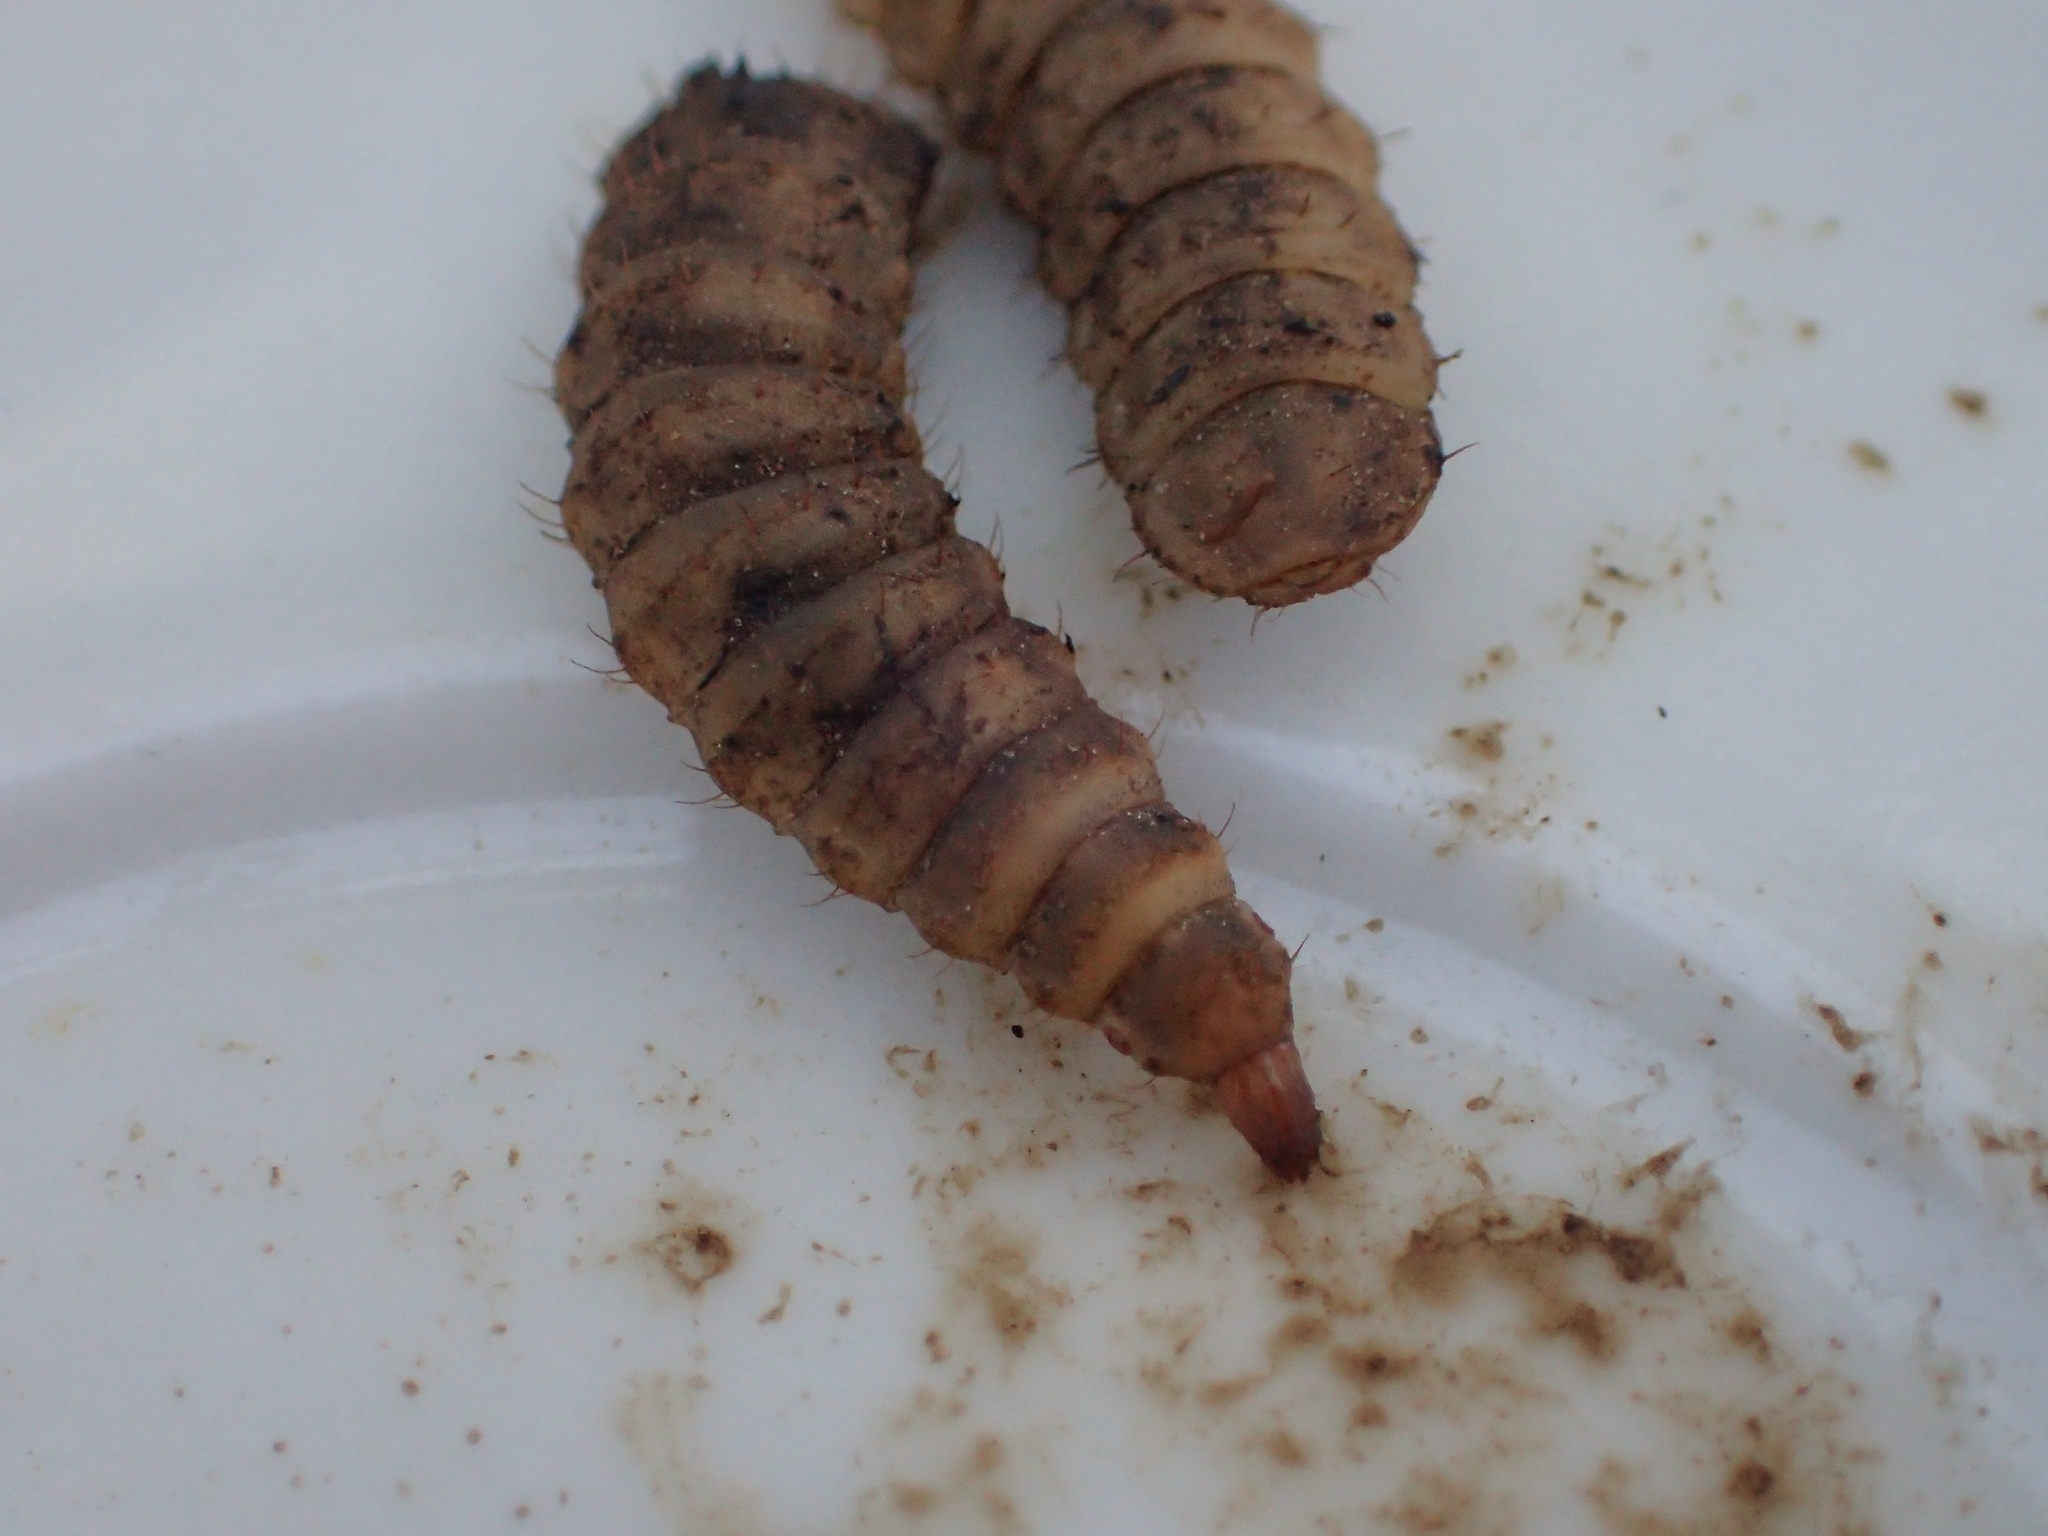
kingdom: Animalia
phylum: Arthropoda
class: Insecta
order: Diptera
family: Stratiomyidae
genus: Hermetia
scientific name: Hermetia illucens
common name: Black soldier fly
